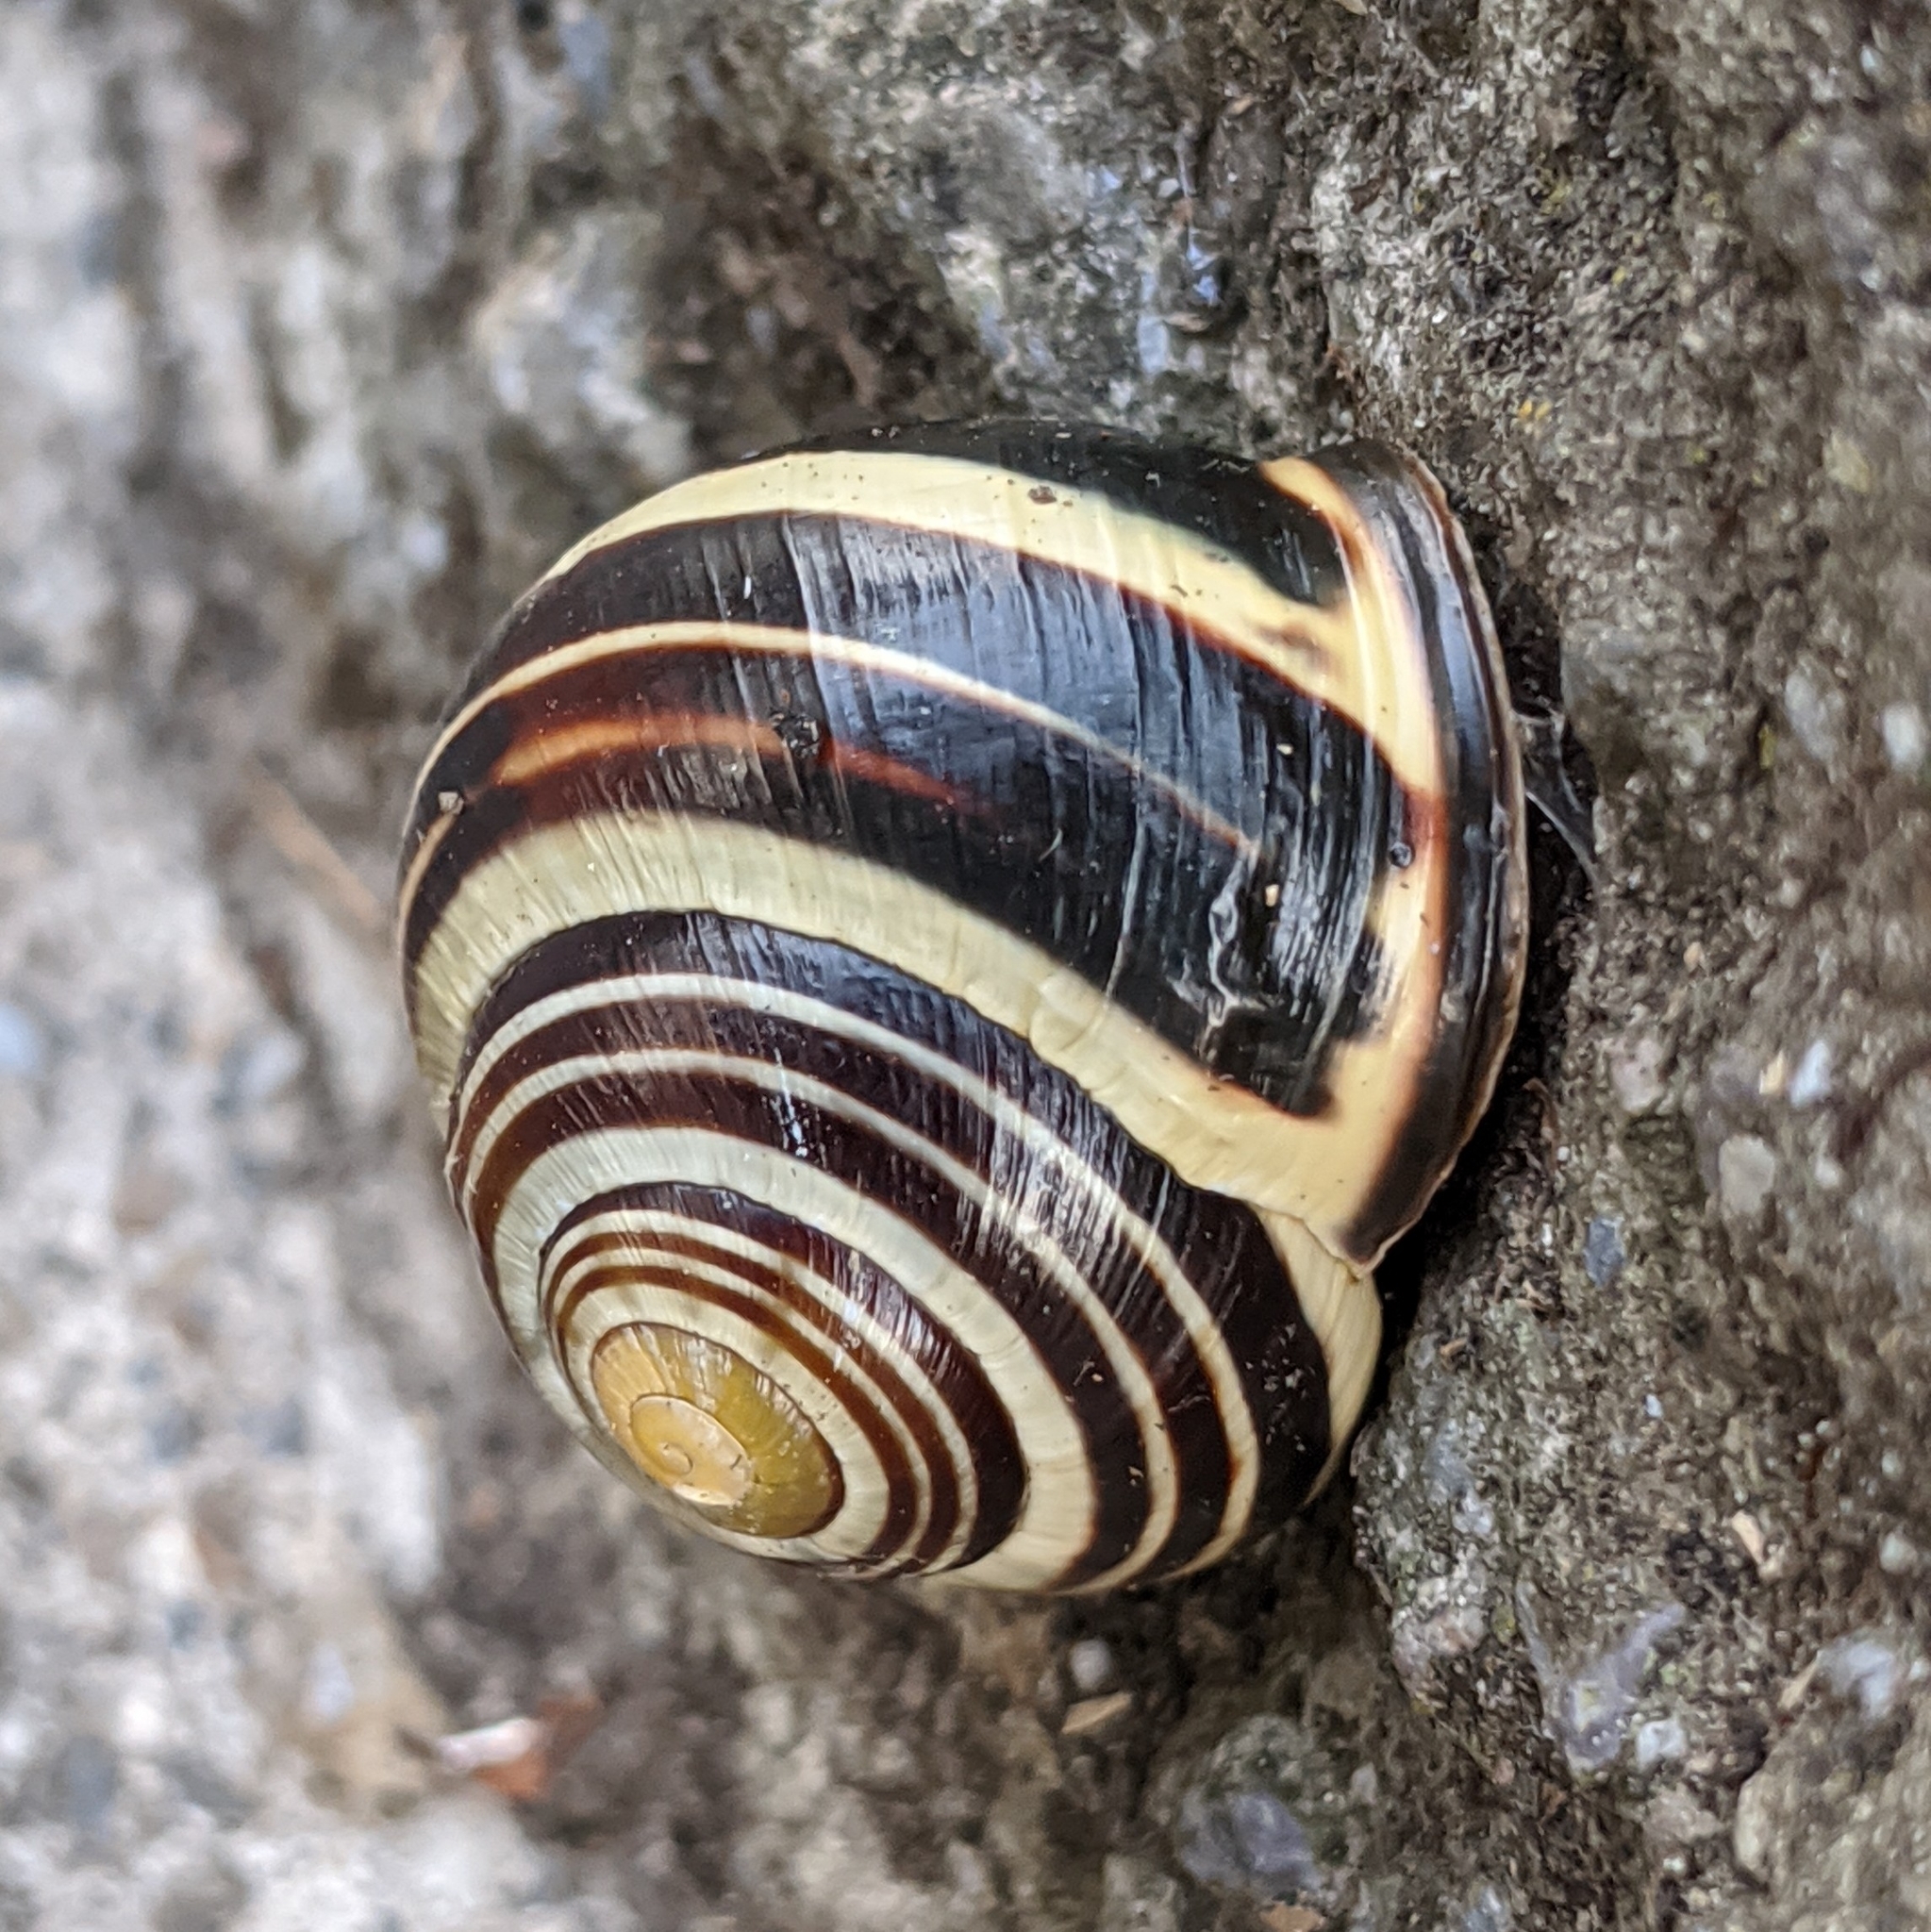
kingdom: Animalia
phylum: Mollusca
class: Gastropoda
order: Stylommatophora
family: Helicidae
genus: Cepaea
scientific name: Cepaea nemoralis
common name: Grovesnail
